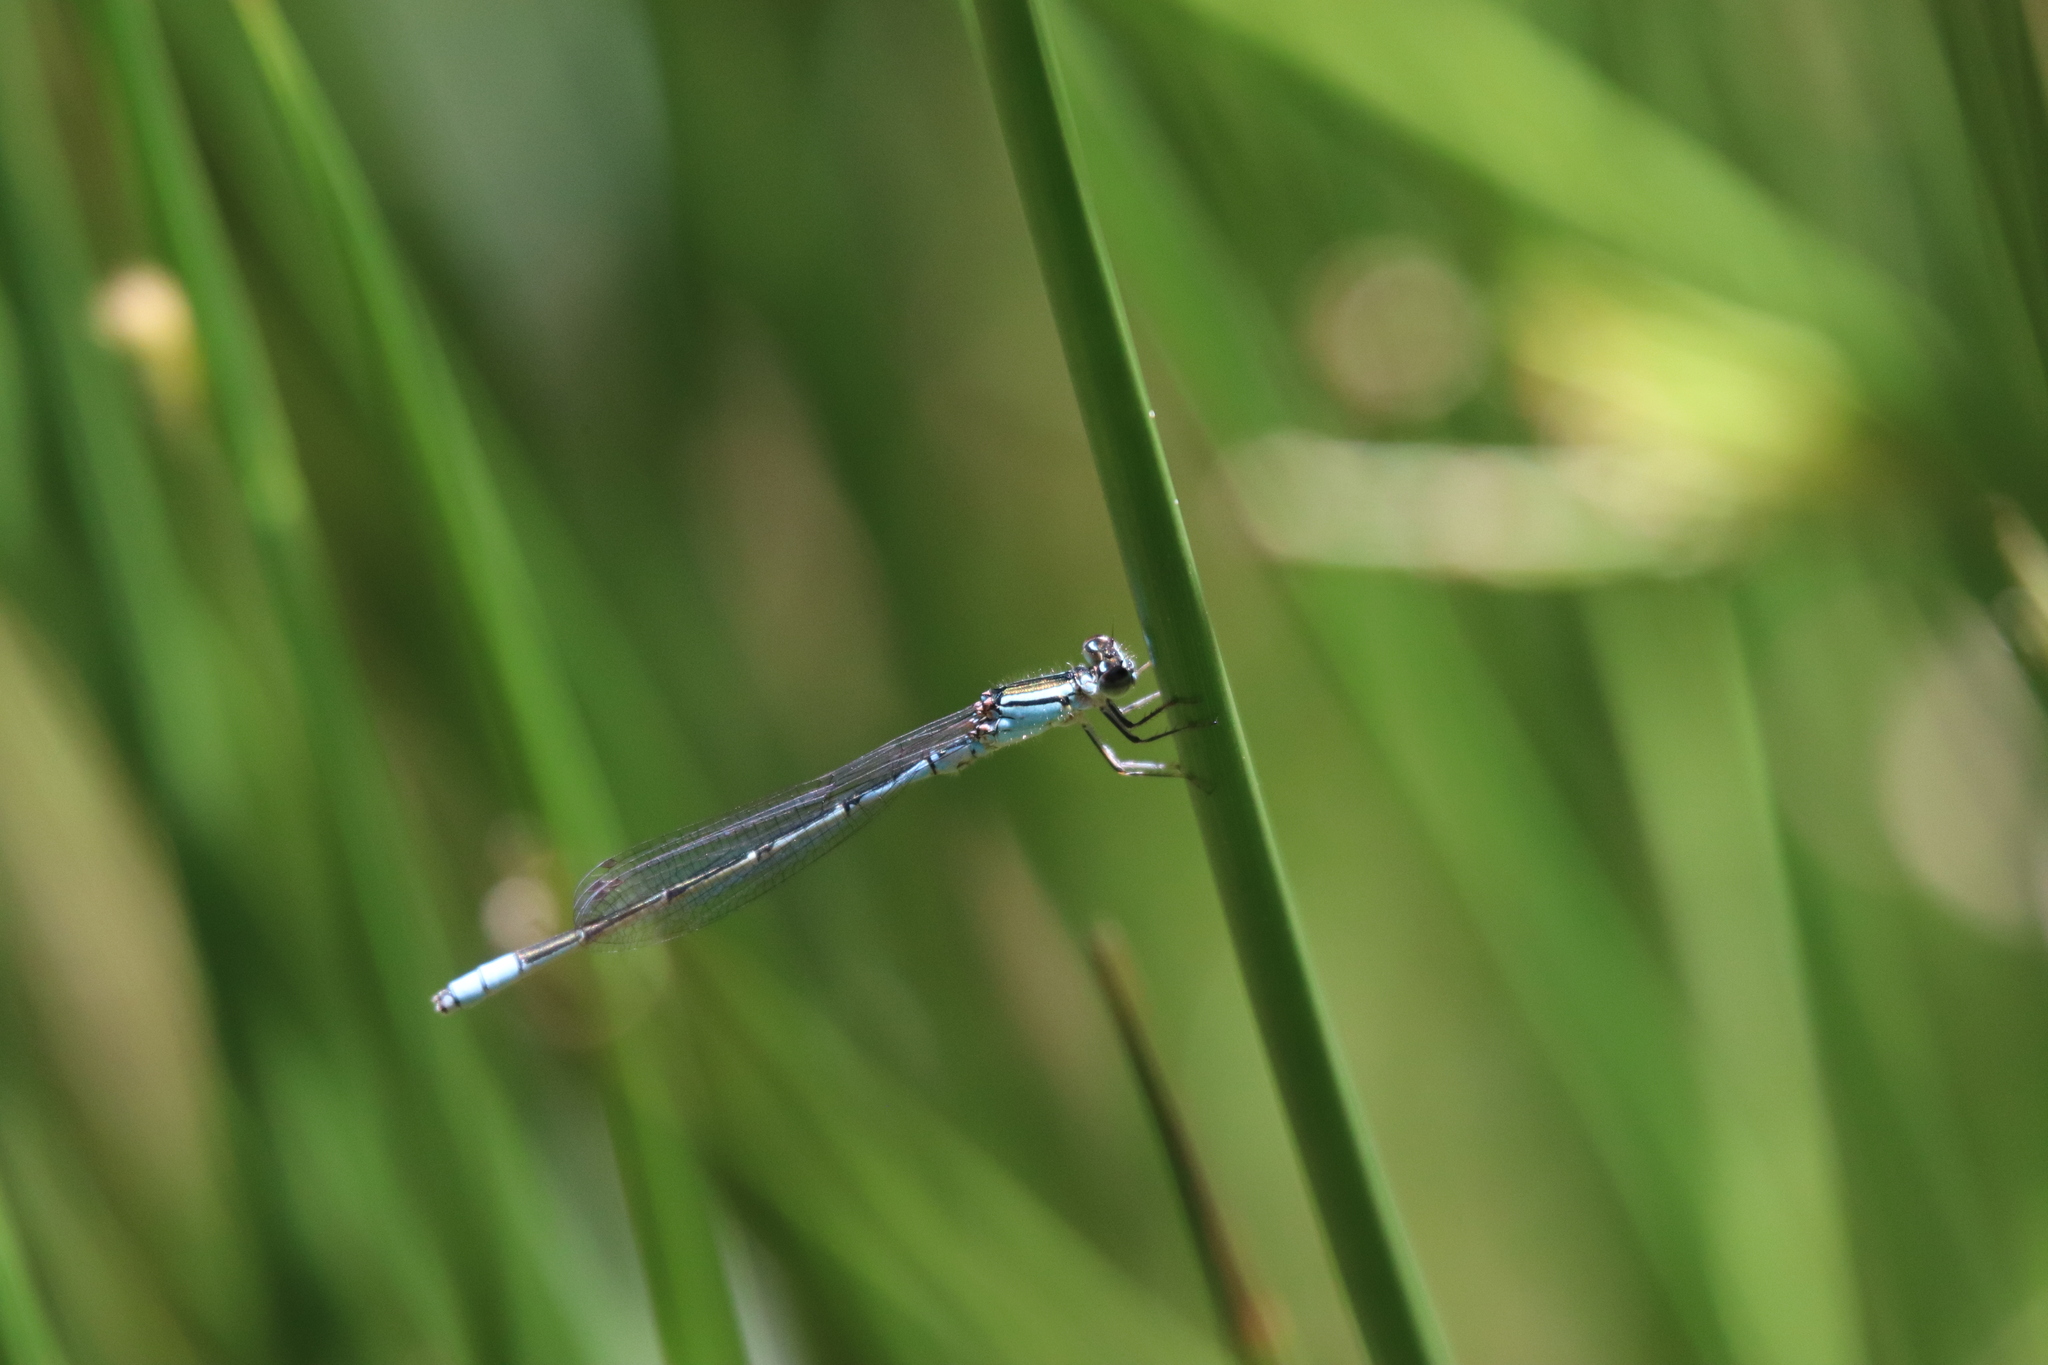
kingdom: Animalia
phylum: Arthropoda
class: Insecta
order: Odonata
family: Coenagrionidae
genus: Africallagma
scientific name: Africallagma glaucum
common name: Swamp bluet
